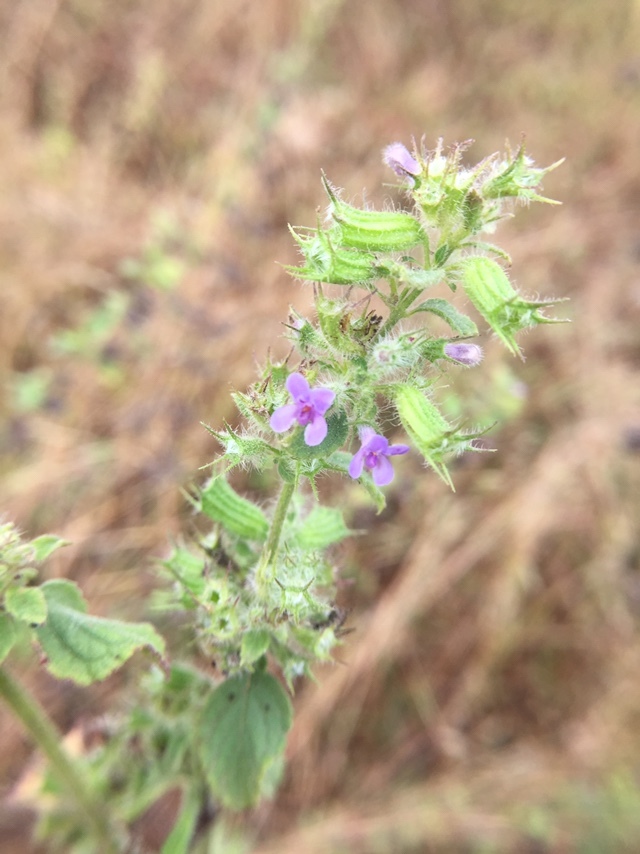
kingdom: Plantae
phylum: Tracheophyta
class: Magnoliopsida
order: Lamiales
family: Lamiaceae
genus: Mesosphaerum
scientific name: Mesosphaerum suaveolens
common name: Pignut
